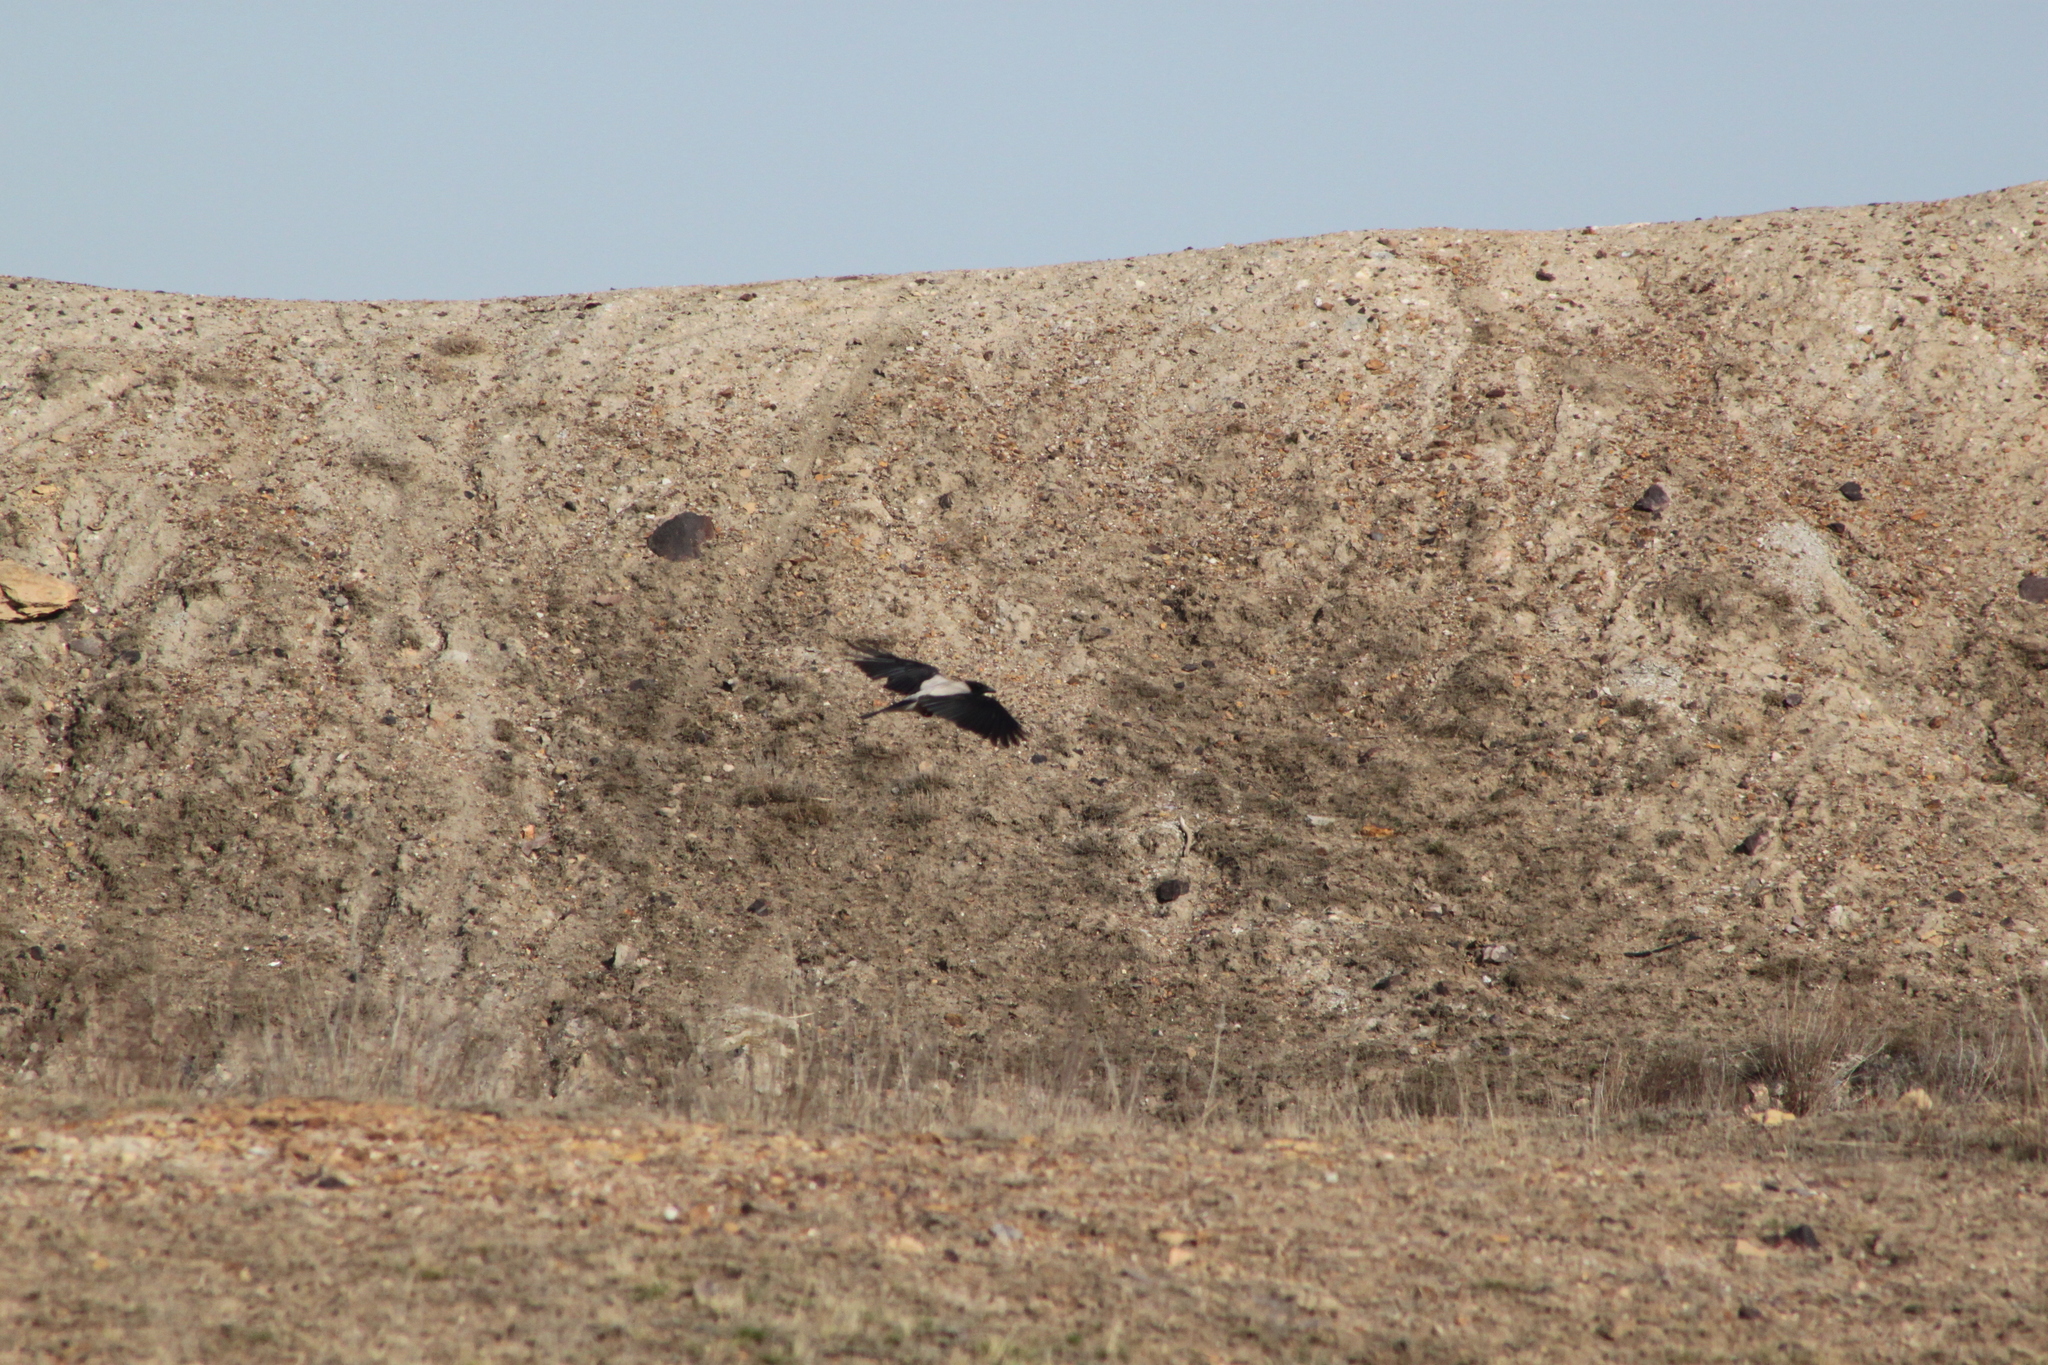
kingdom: Animalia
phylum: Chordata
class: Aves
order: Passeriformes
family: Corvidae
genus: Corvus
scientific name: Corvus cornix
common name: Hooded crow
